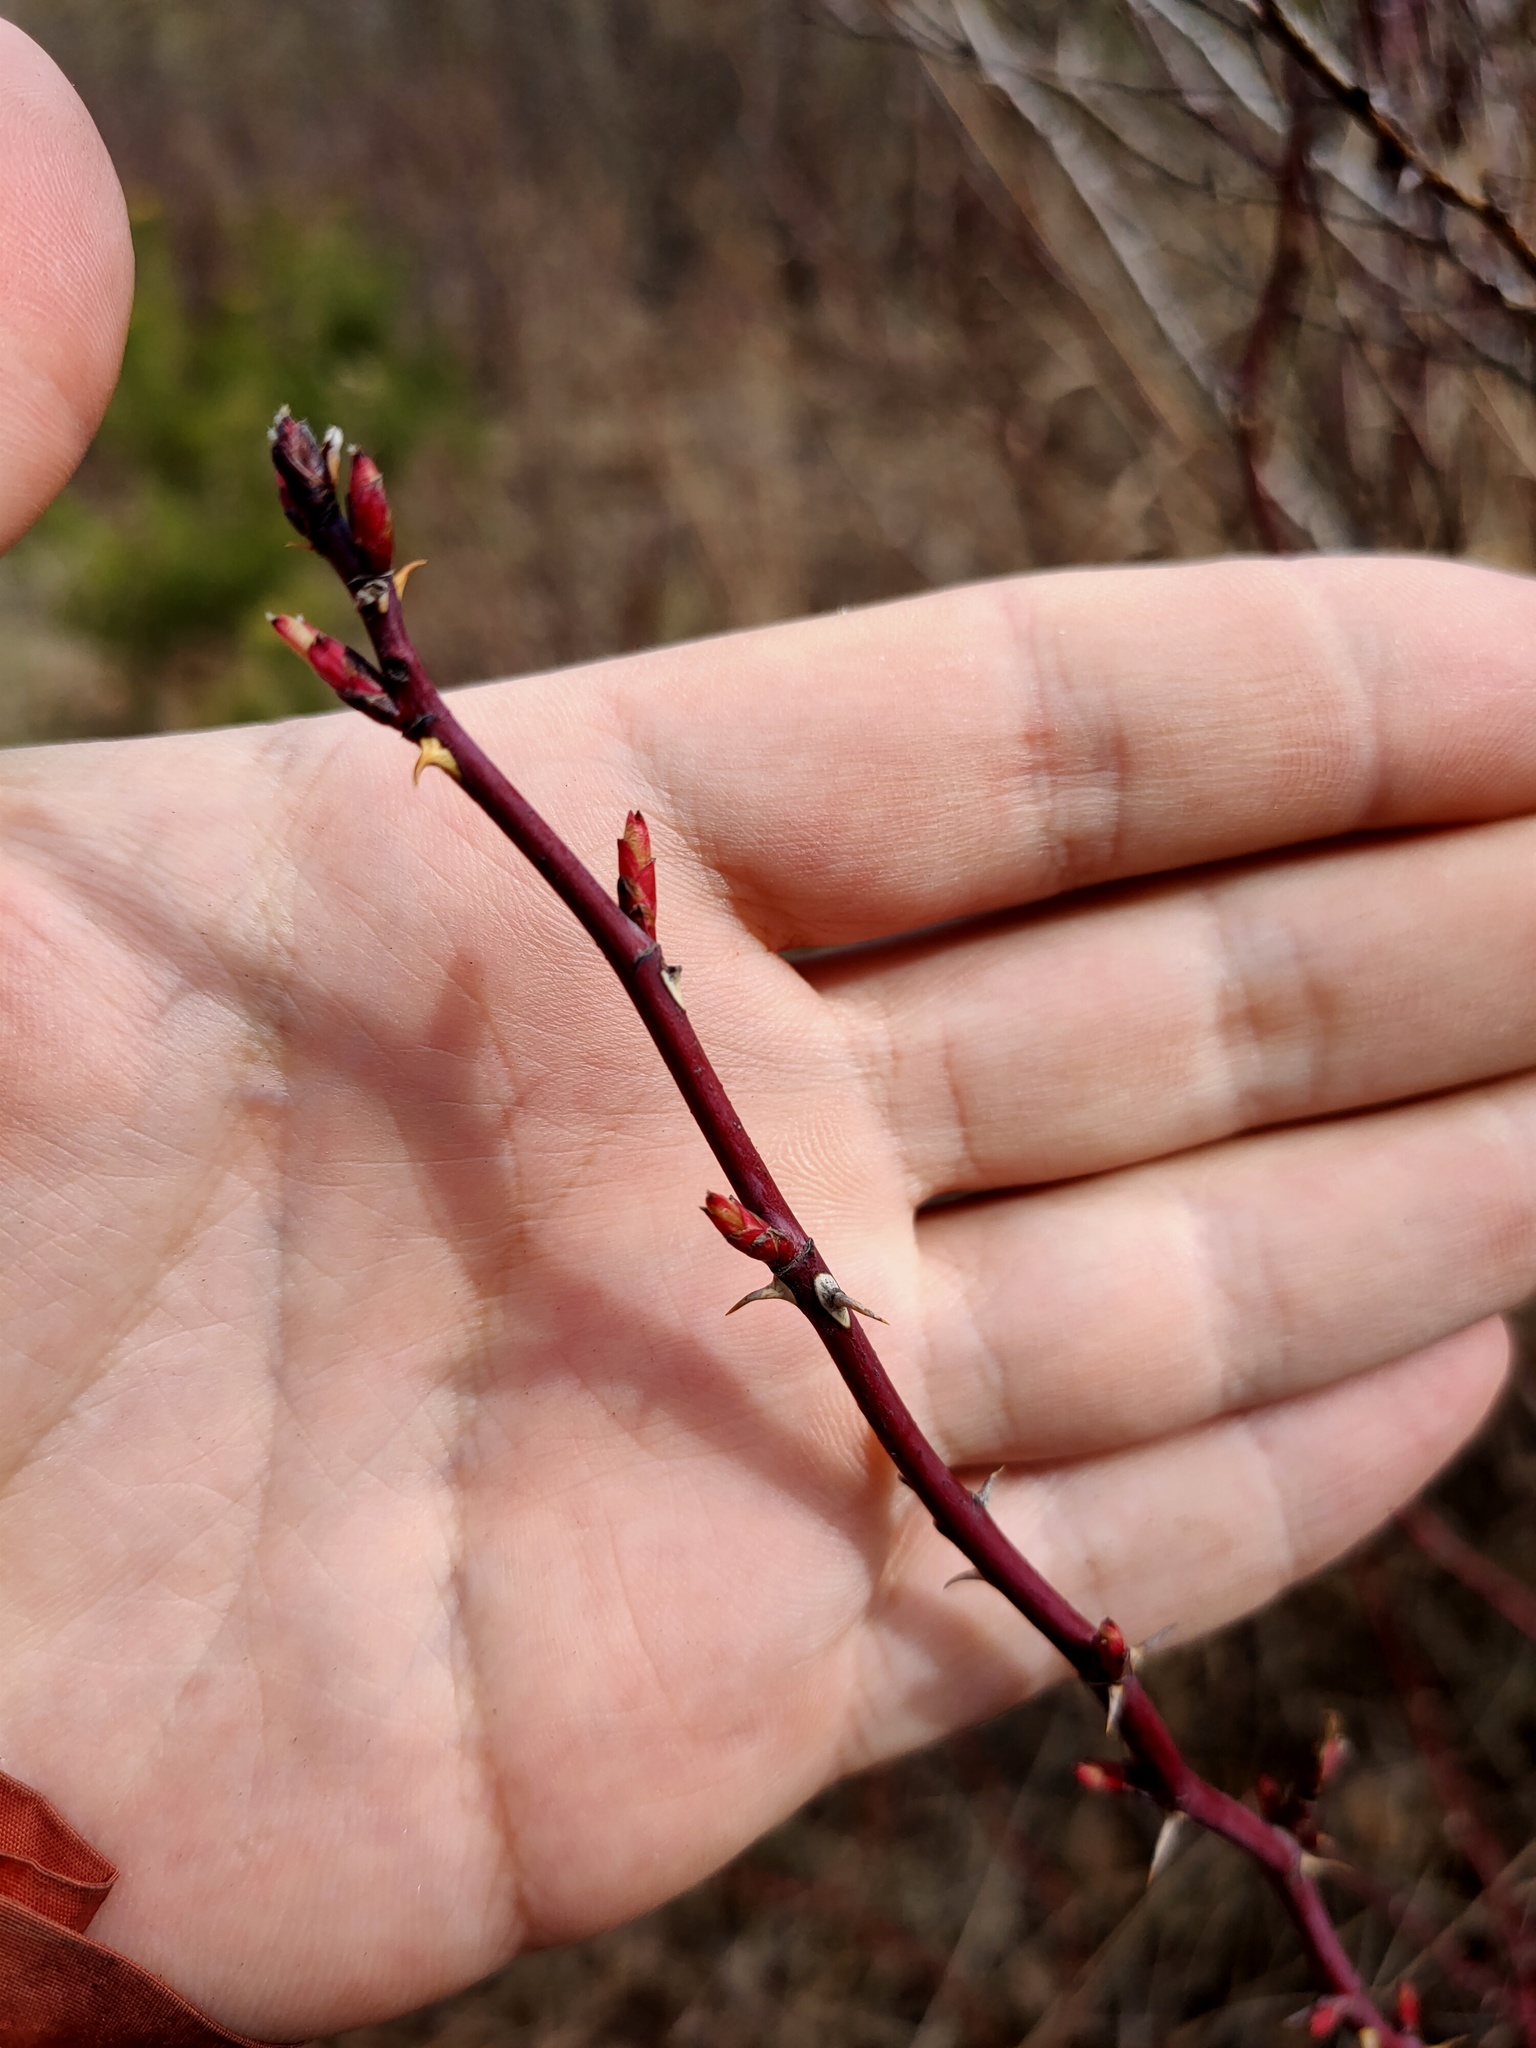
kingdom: Plantae
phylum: Tracheophyta
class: Magnoliopsida
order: Rosales
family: Rosaceae
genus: Rosa
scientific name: Rosa
